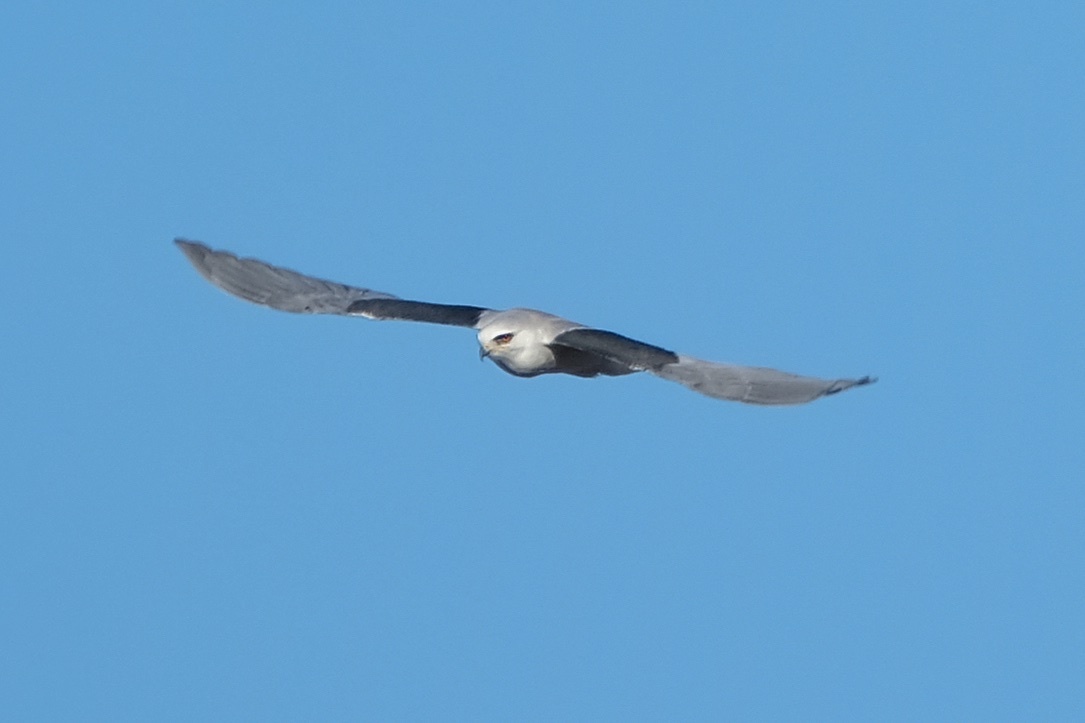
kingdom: Animalia
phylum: Chordata
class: Aves
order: Accipitriformes
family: Accipitridae
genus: Elanus
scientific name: Elanus leucurus
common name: White-tailed kite
